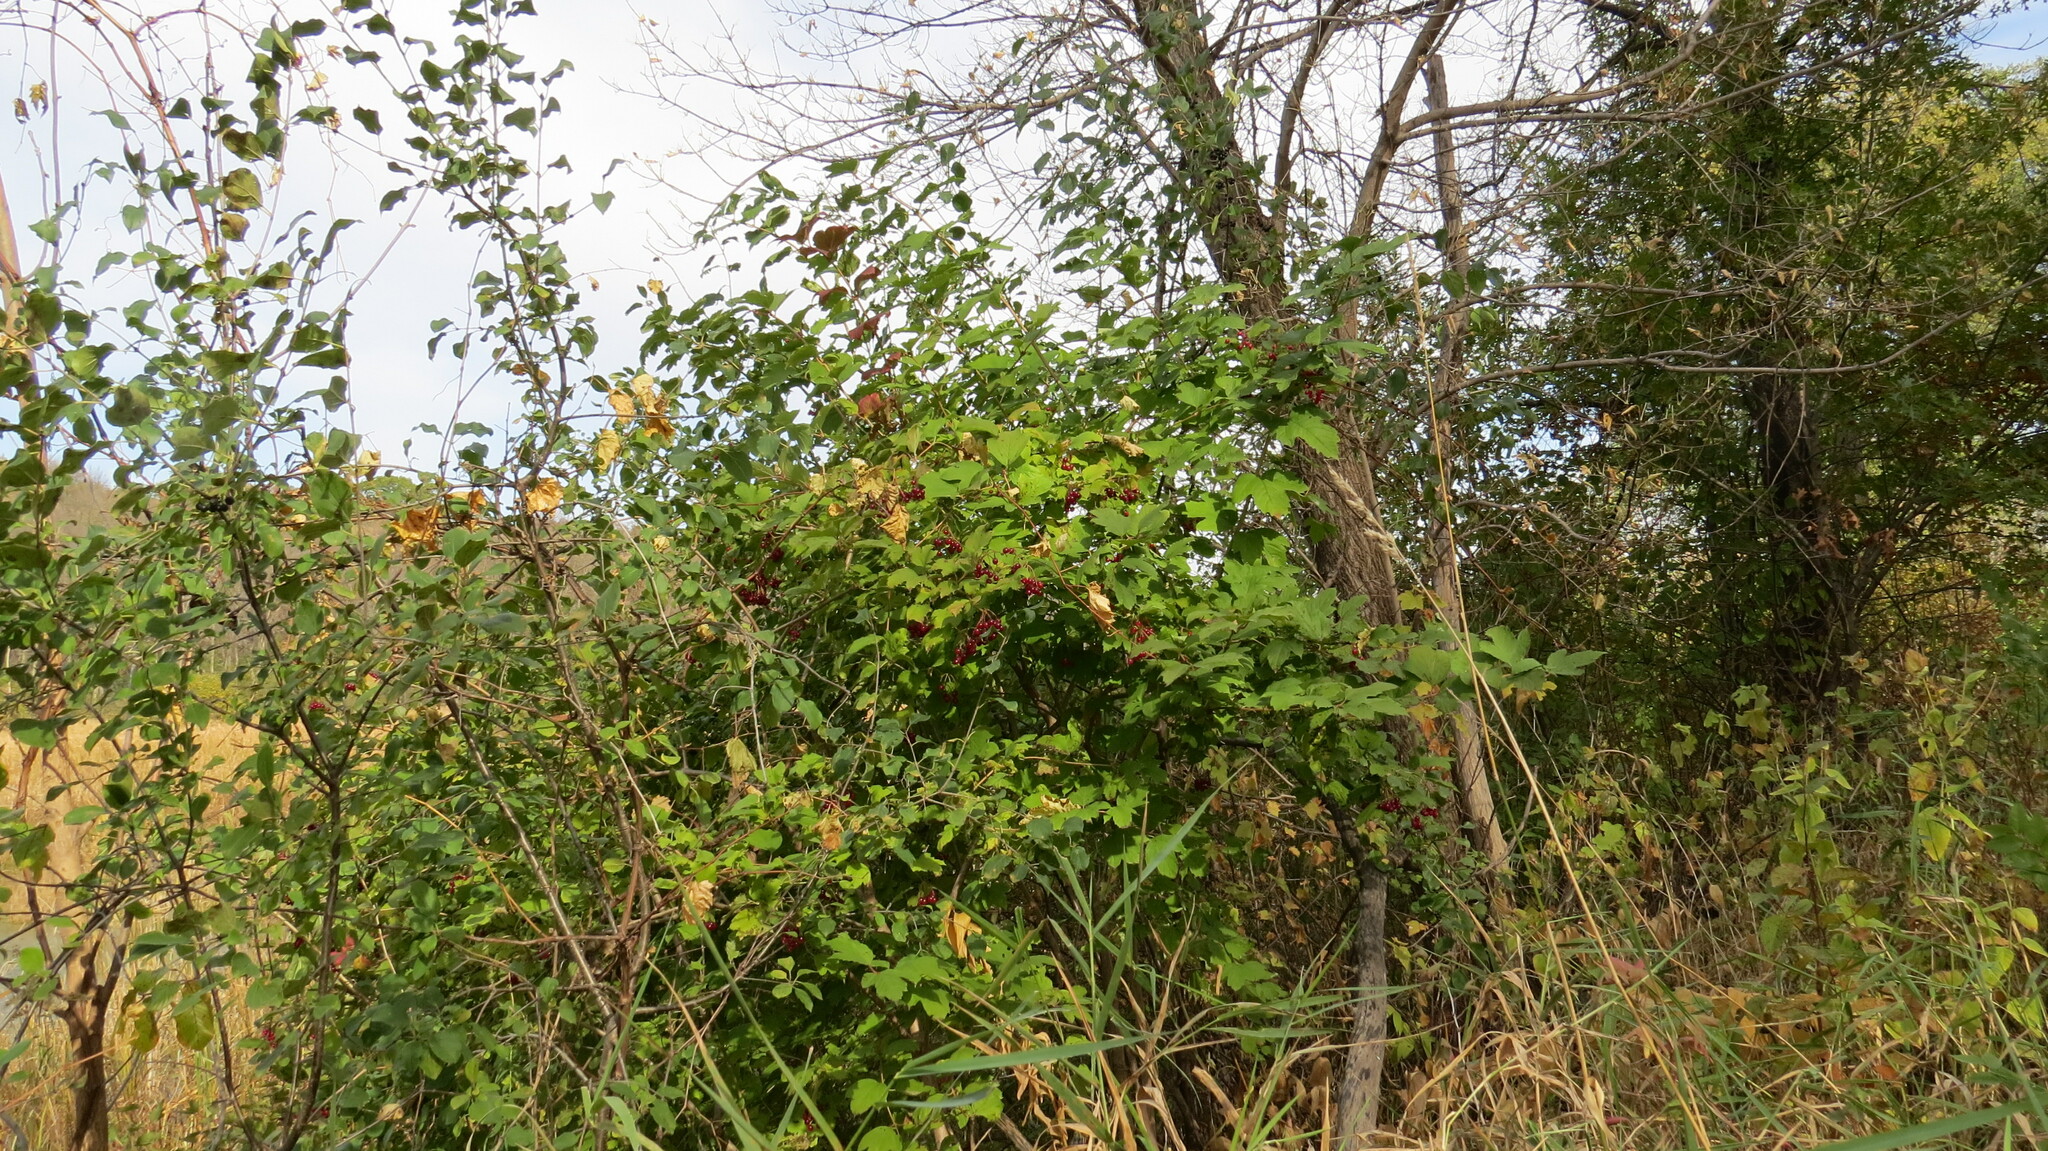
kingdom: Plantae
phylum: Tracheophyta
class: Magnoliopsida
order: Dipsacales
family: Viburnaceae
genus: Viburnum
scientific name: Viburnum opulus
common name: Guelder-rose
